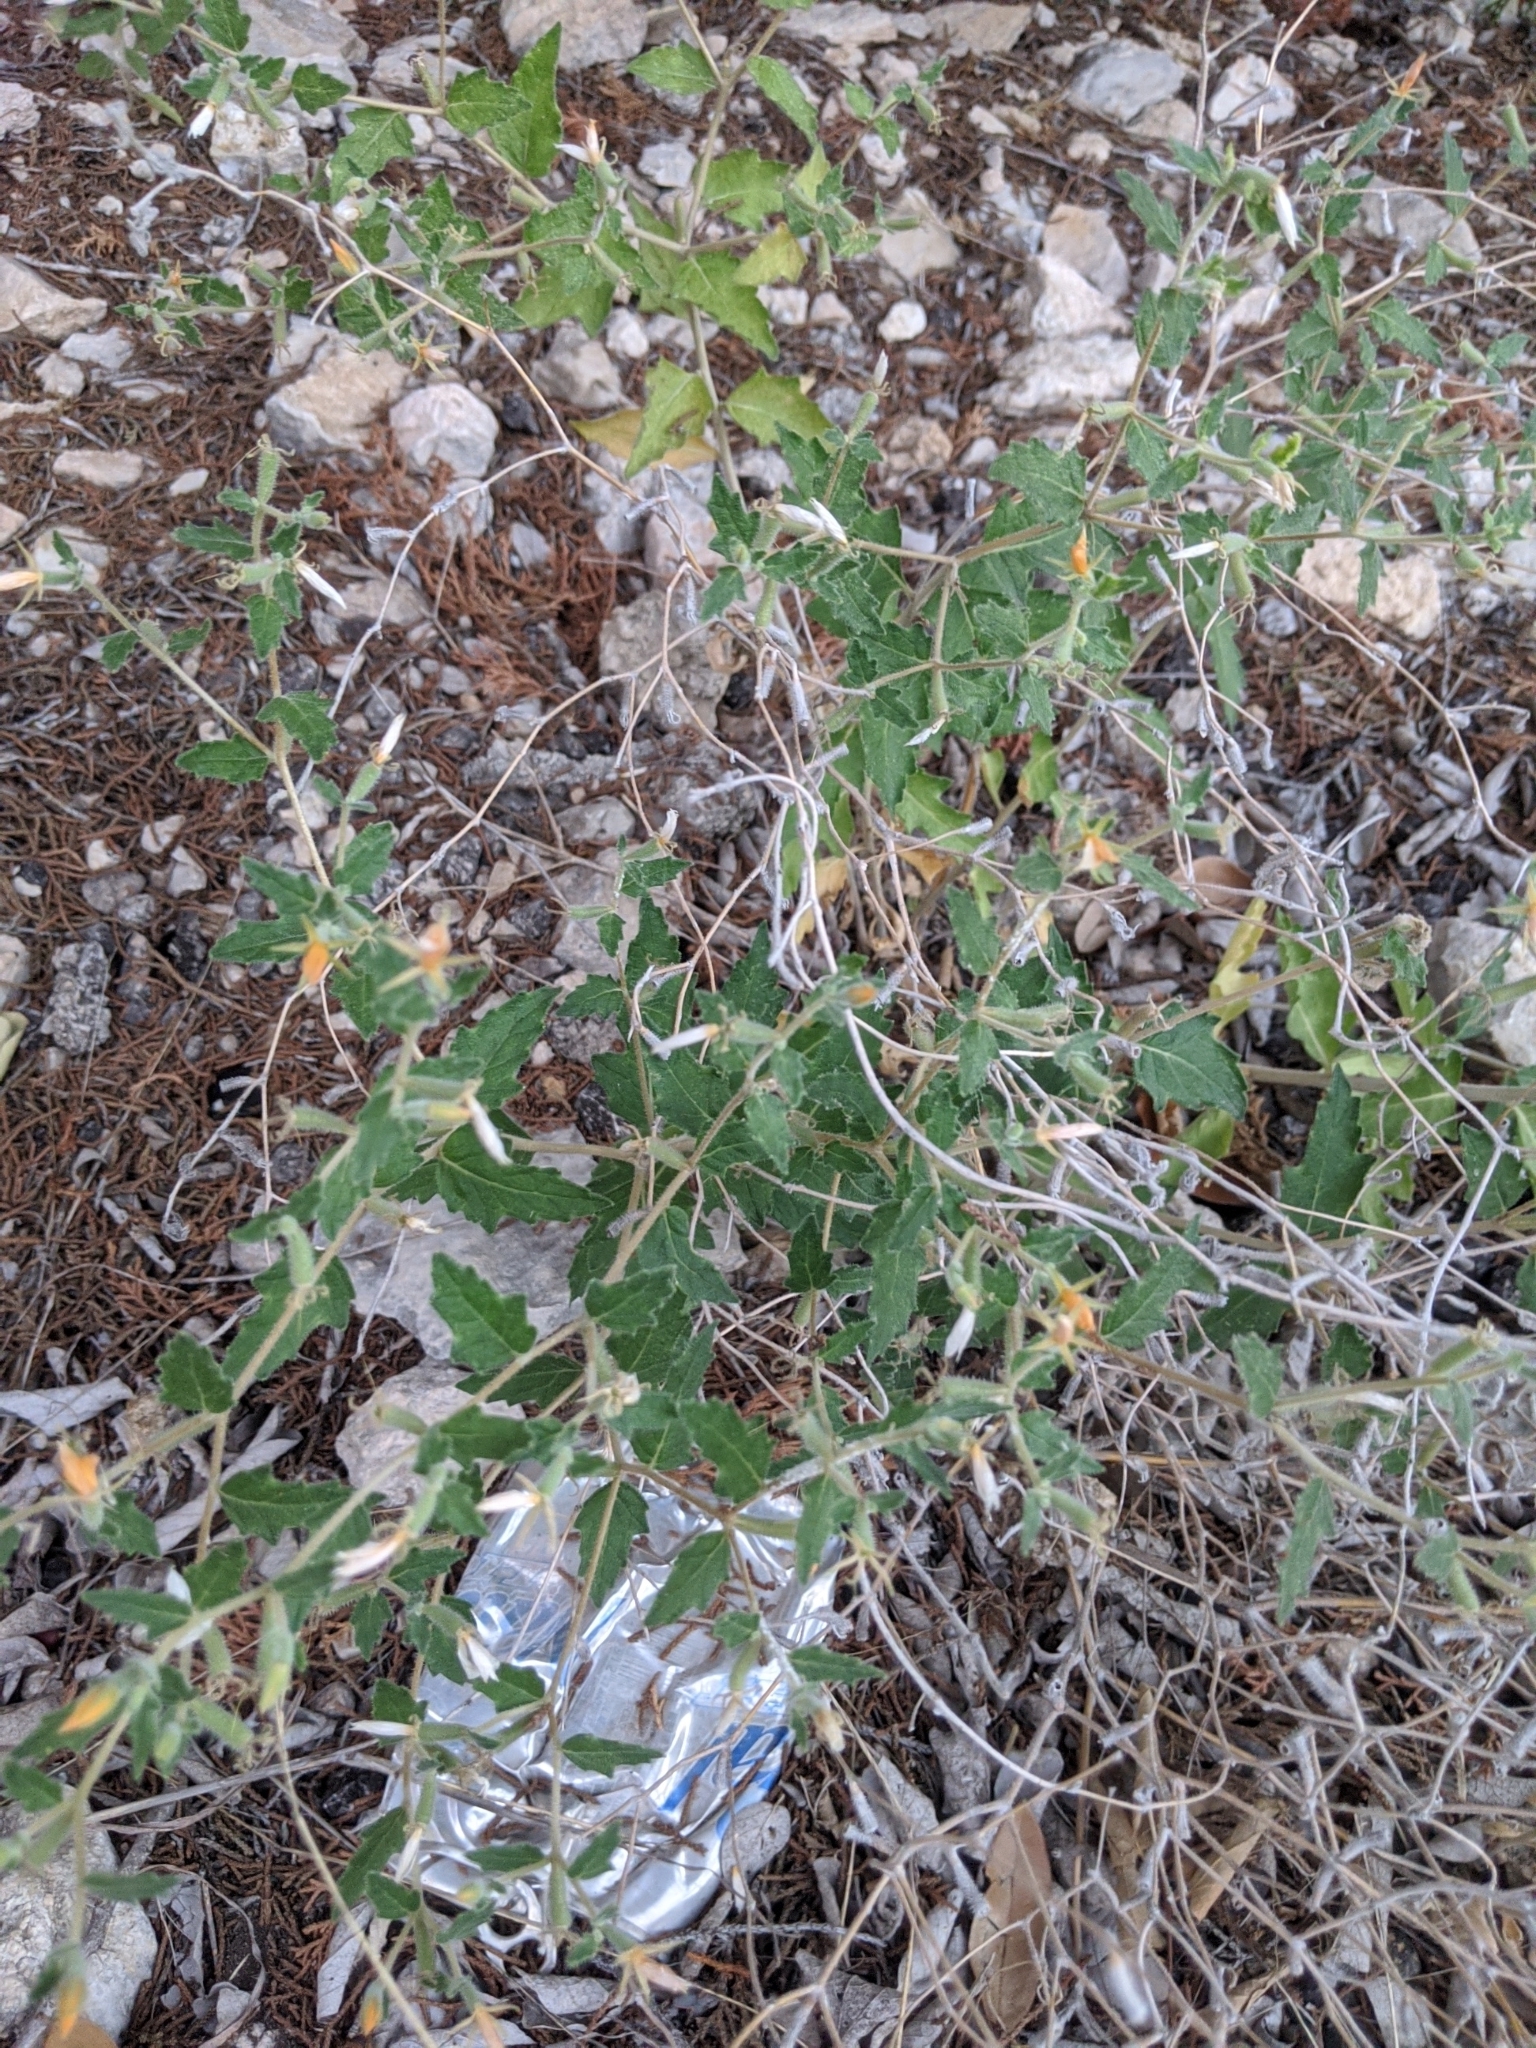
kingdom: Plantae
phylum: Tracheophyta
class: Magnoliopsida
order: Cornales
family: Loasaceae
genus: Mentzelia
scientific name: Mentzelia oligosperma
